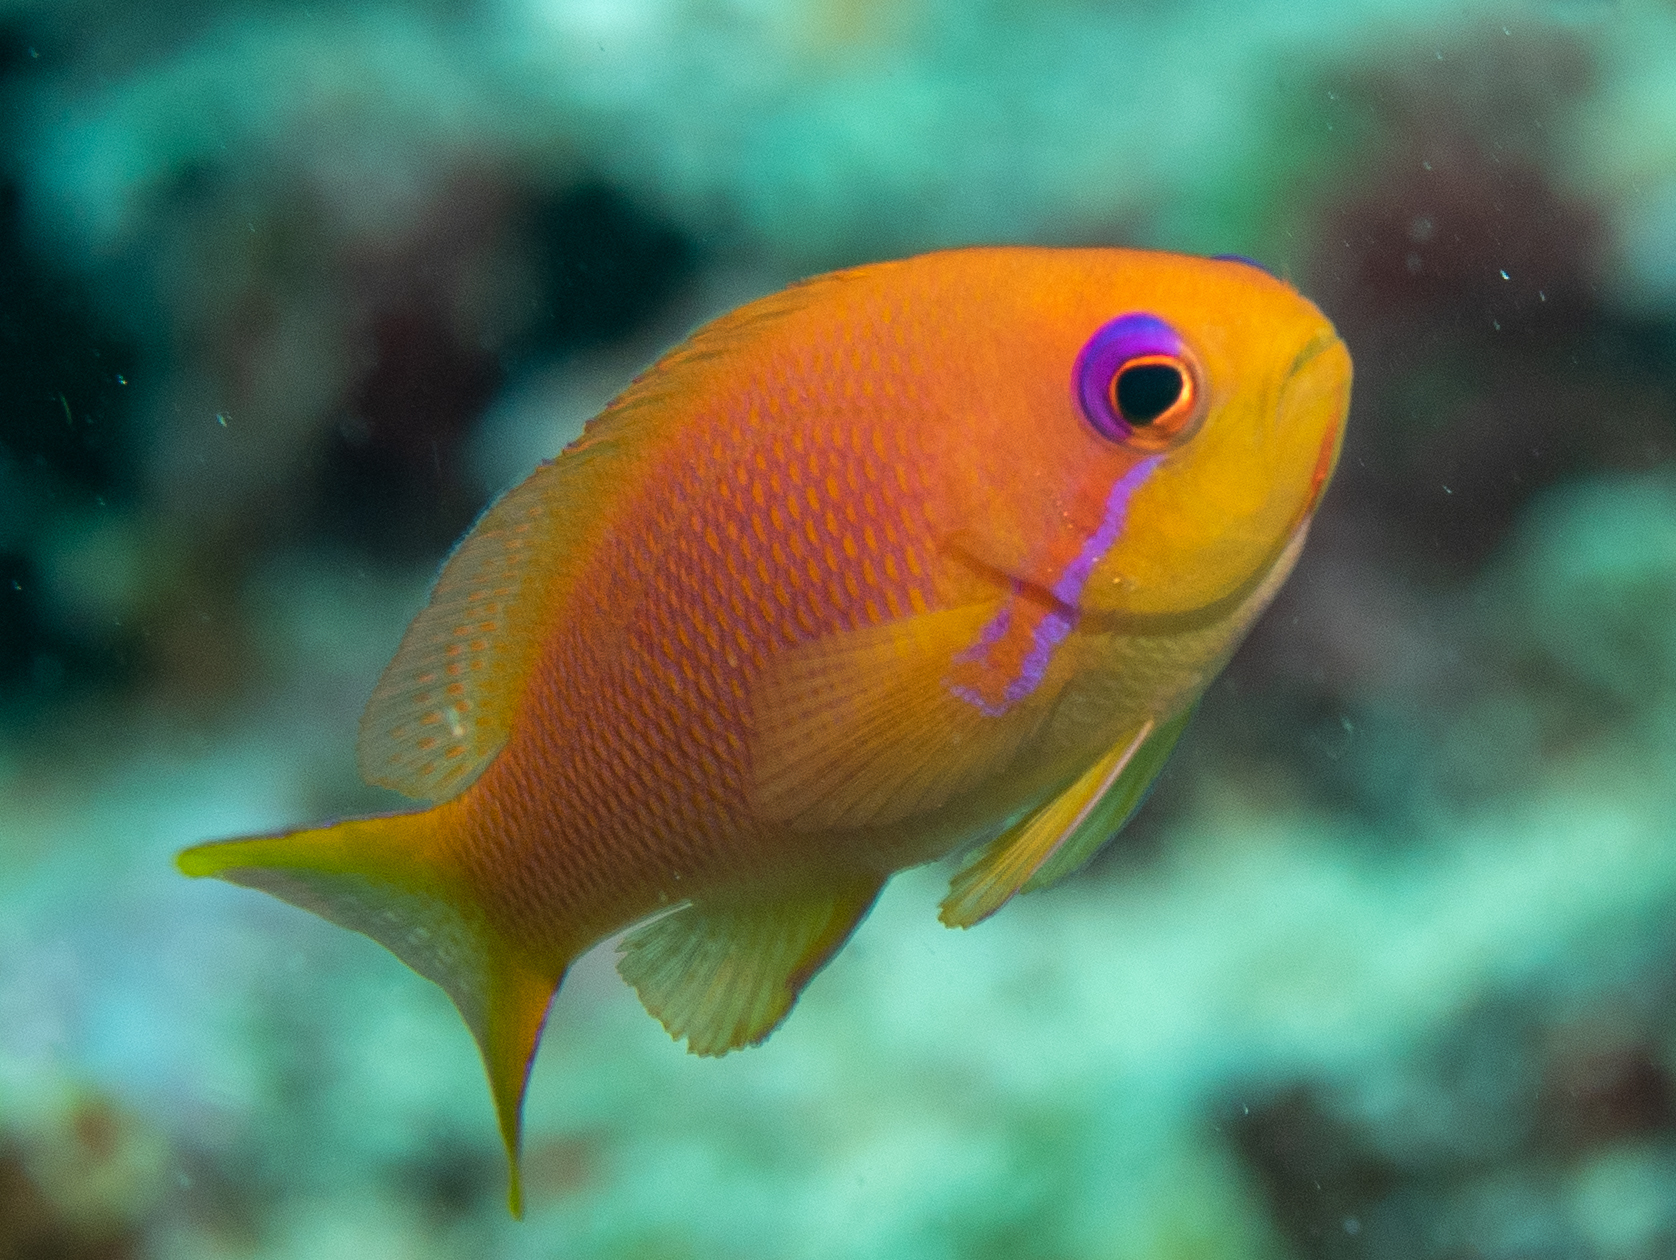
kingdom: Animalia
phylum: Chordata
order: Perciformes
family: Serranidae
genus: Pseudanthias
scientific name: Pseudanthias squamipinnis
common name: Scalefin anthias
